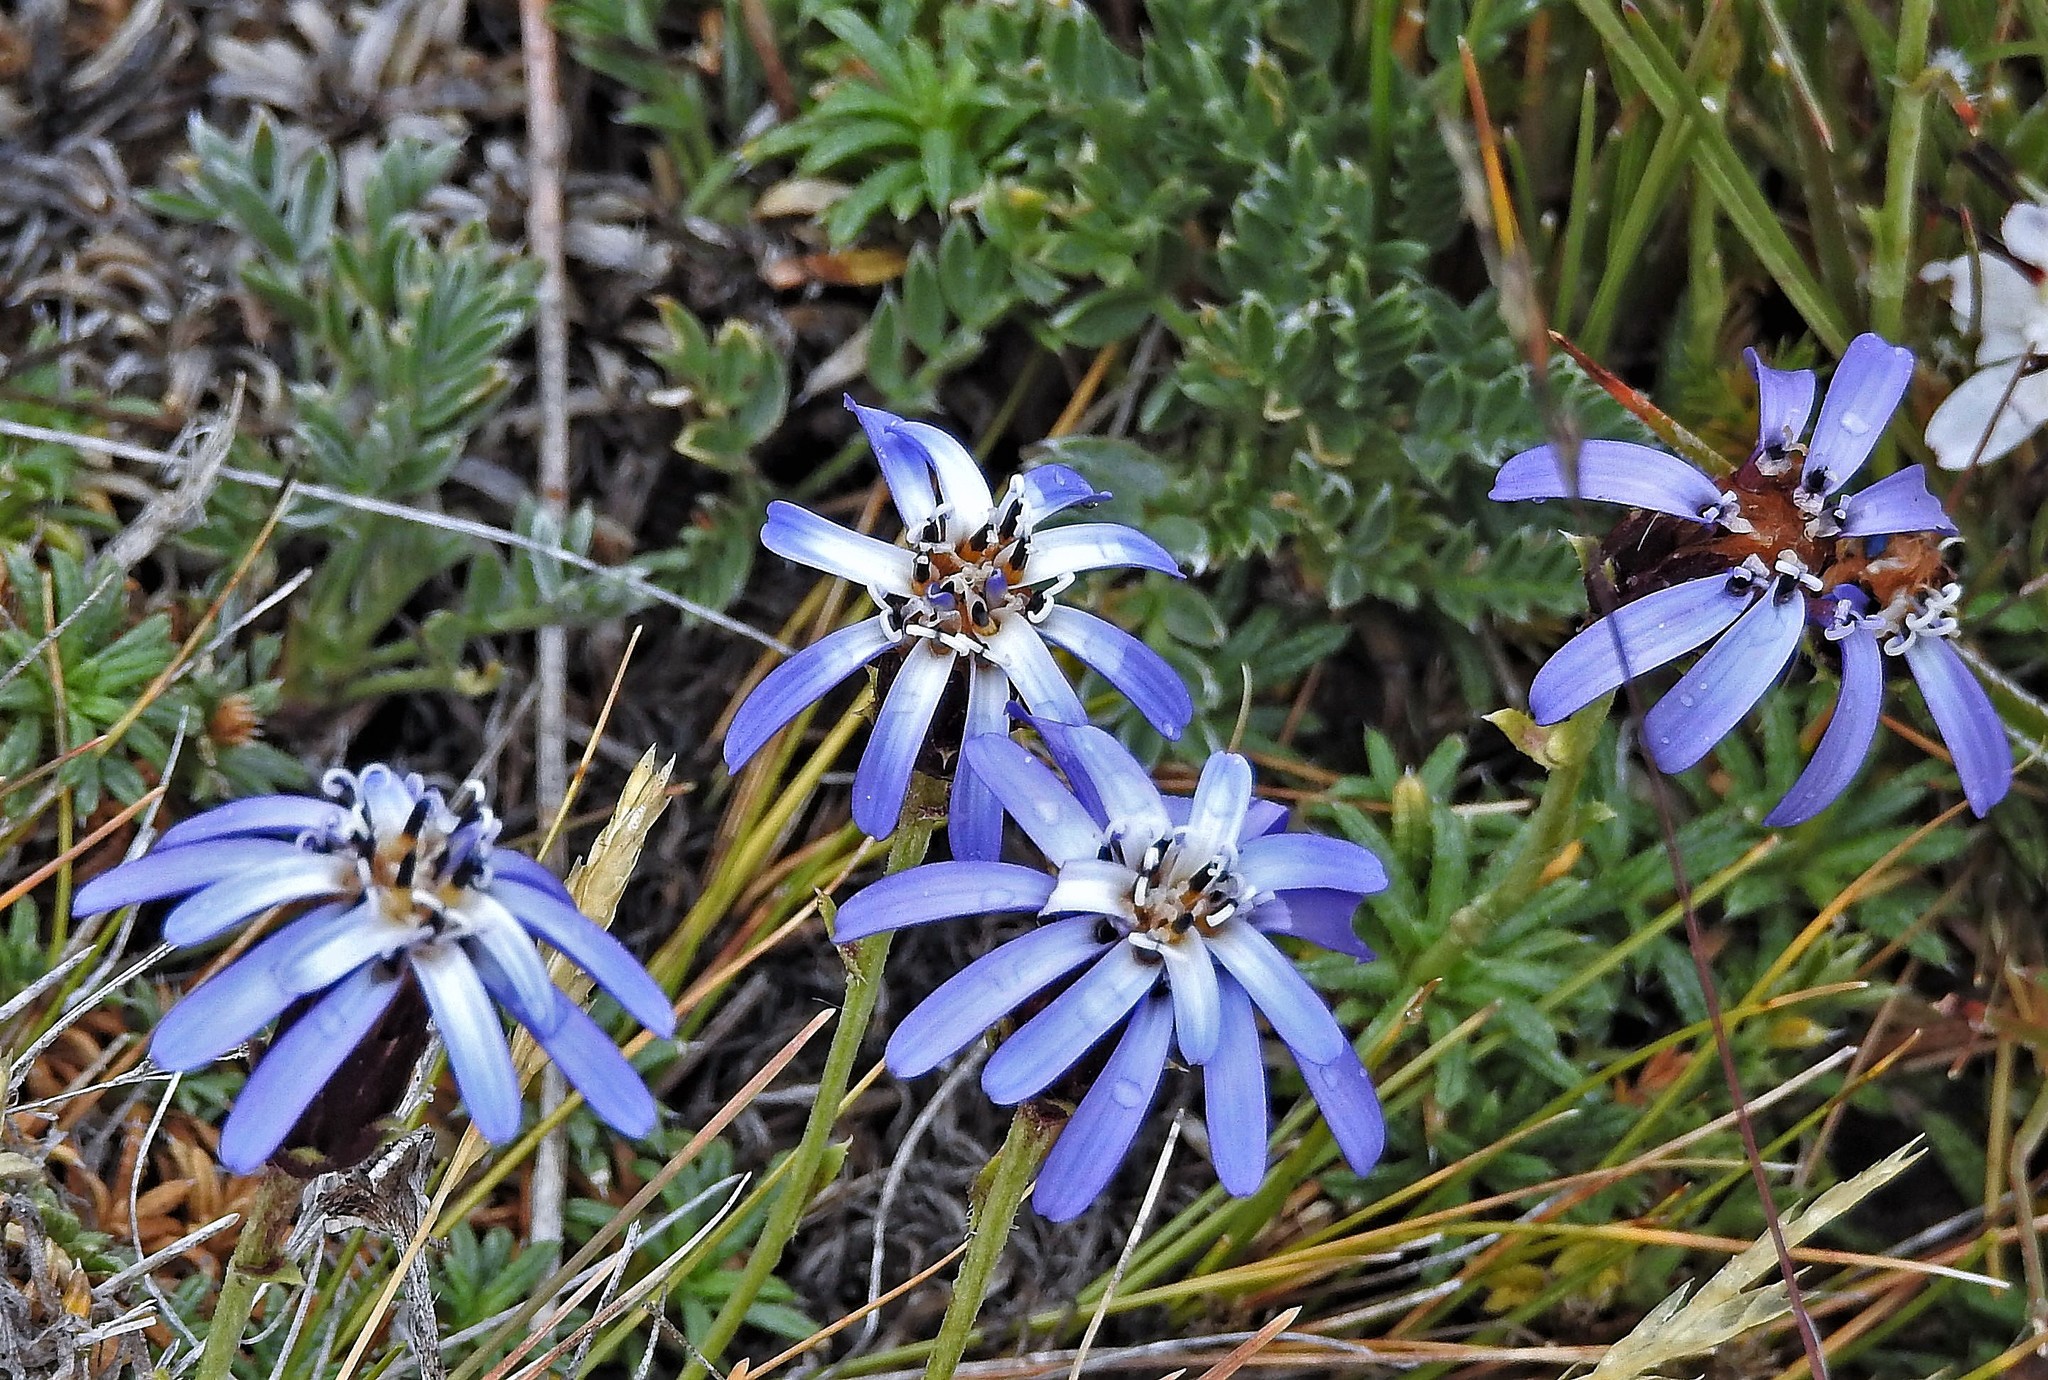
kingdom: Plantae
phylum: Tracheophyta
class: Magnoliopsida
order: Asterales
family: Asteraceae
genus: Perezia
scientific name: Perezia recurvata
